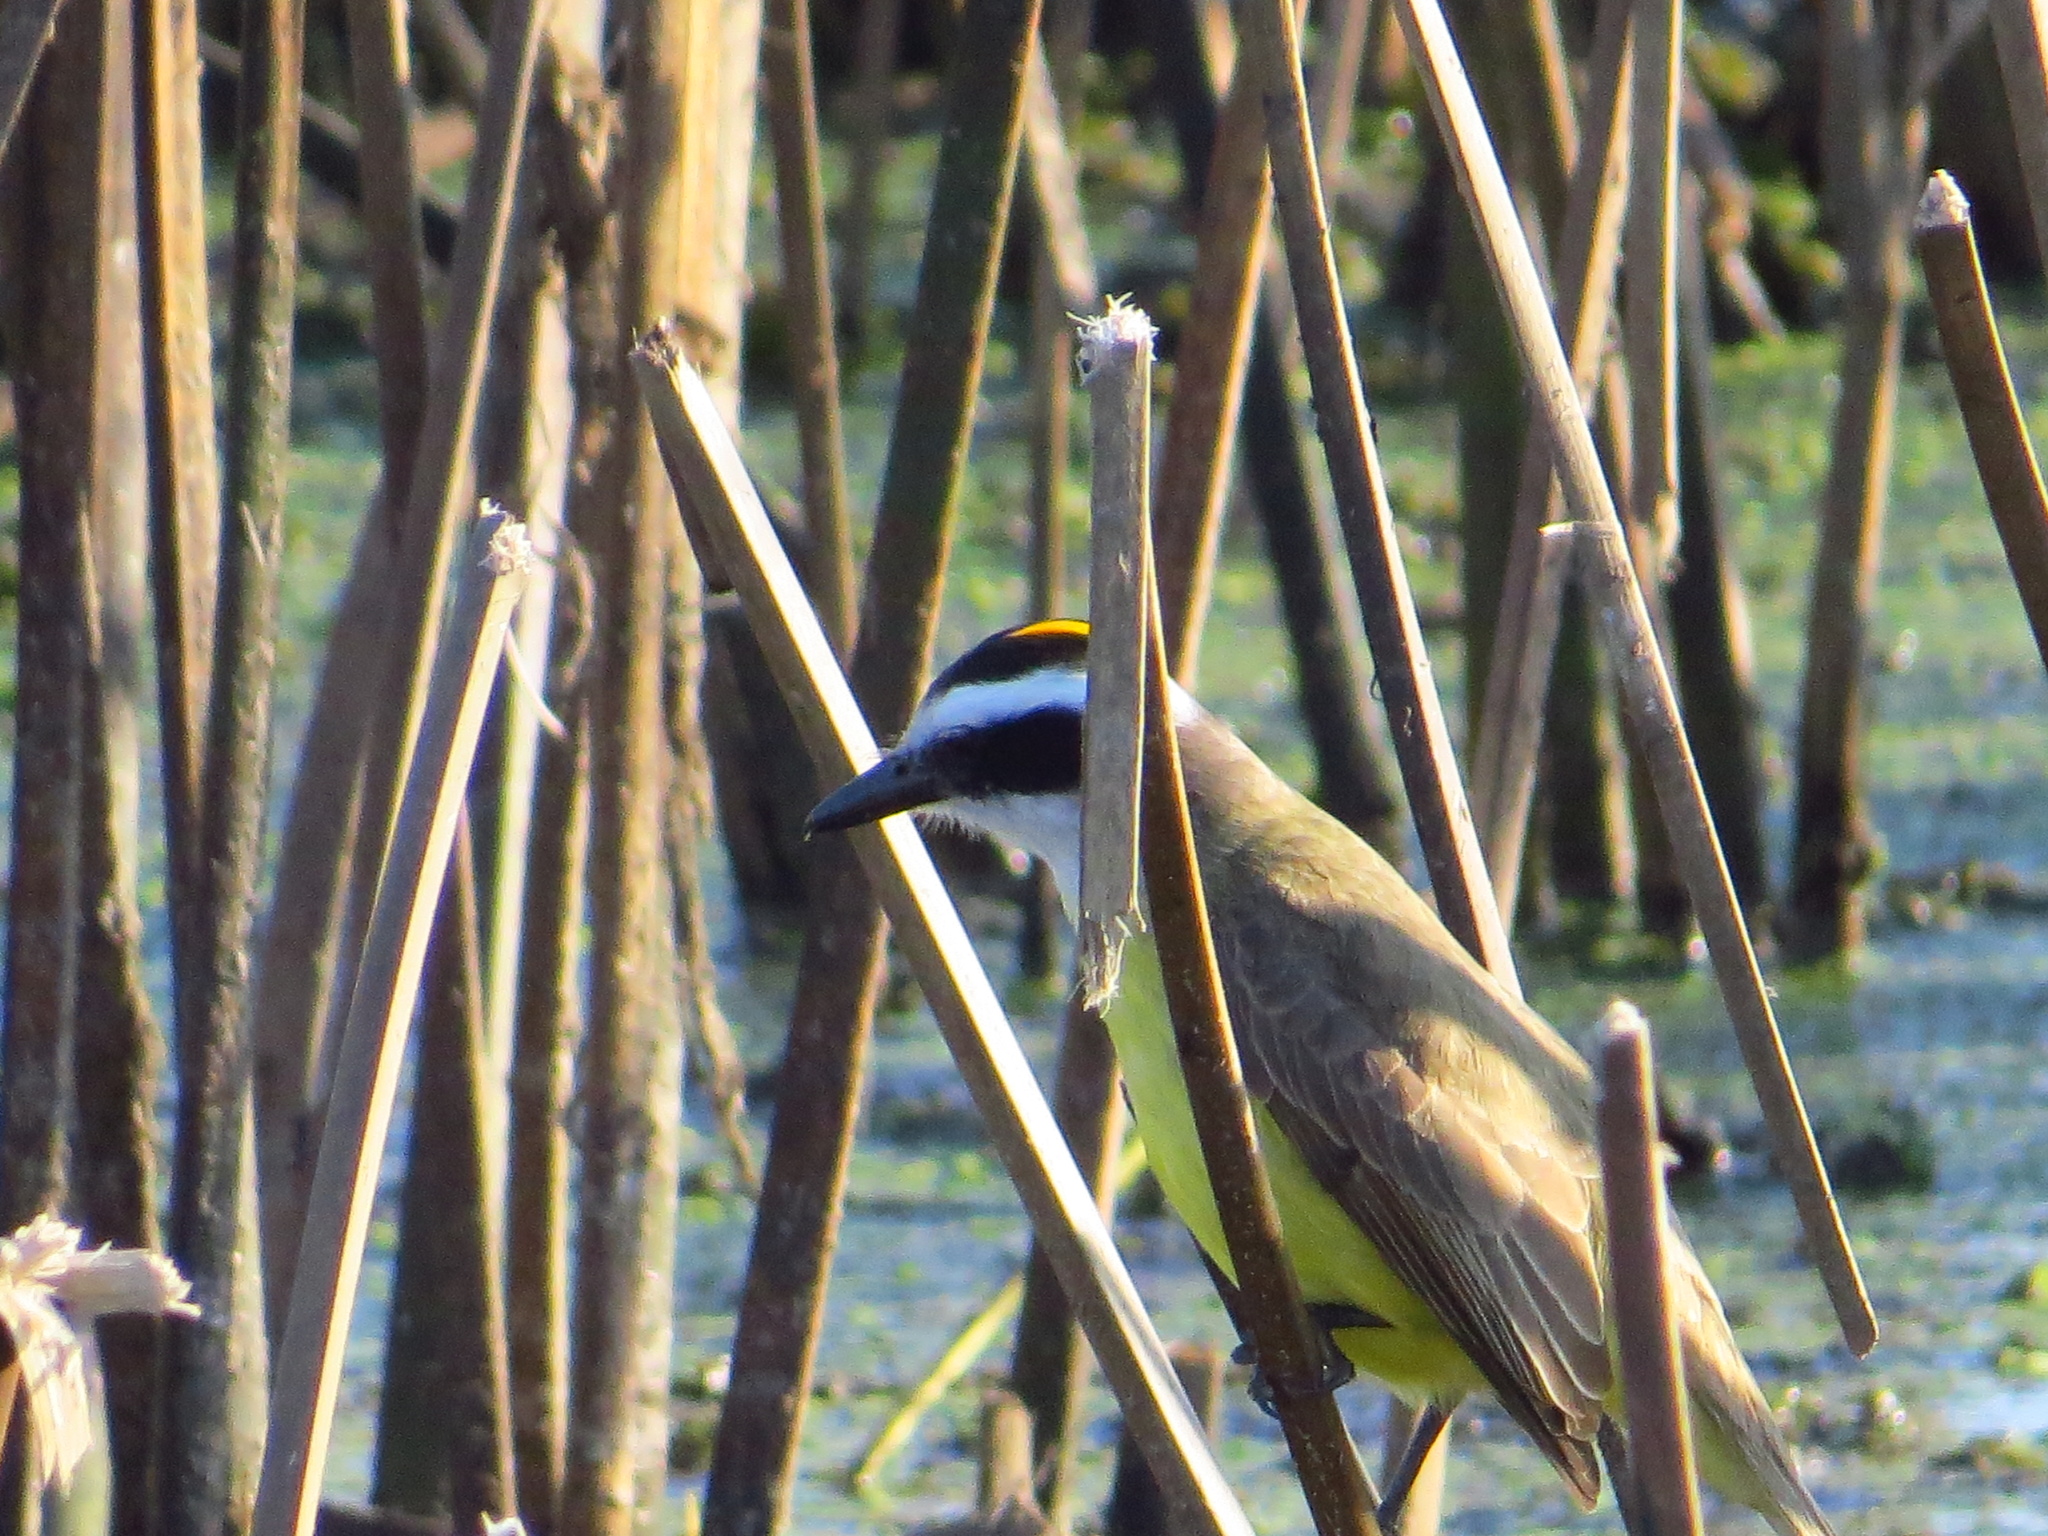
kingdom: Animalia
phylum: Chordata
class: Aves
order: Passeriformes
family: Tyrannidae
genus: Pitangus
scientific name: Pitangus sulphuratus
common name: Great kiskadee
